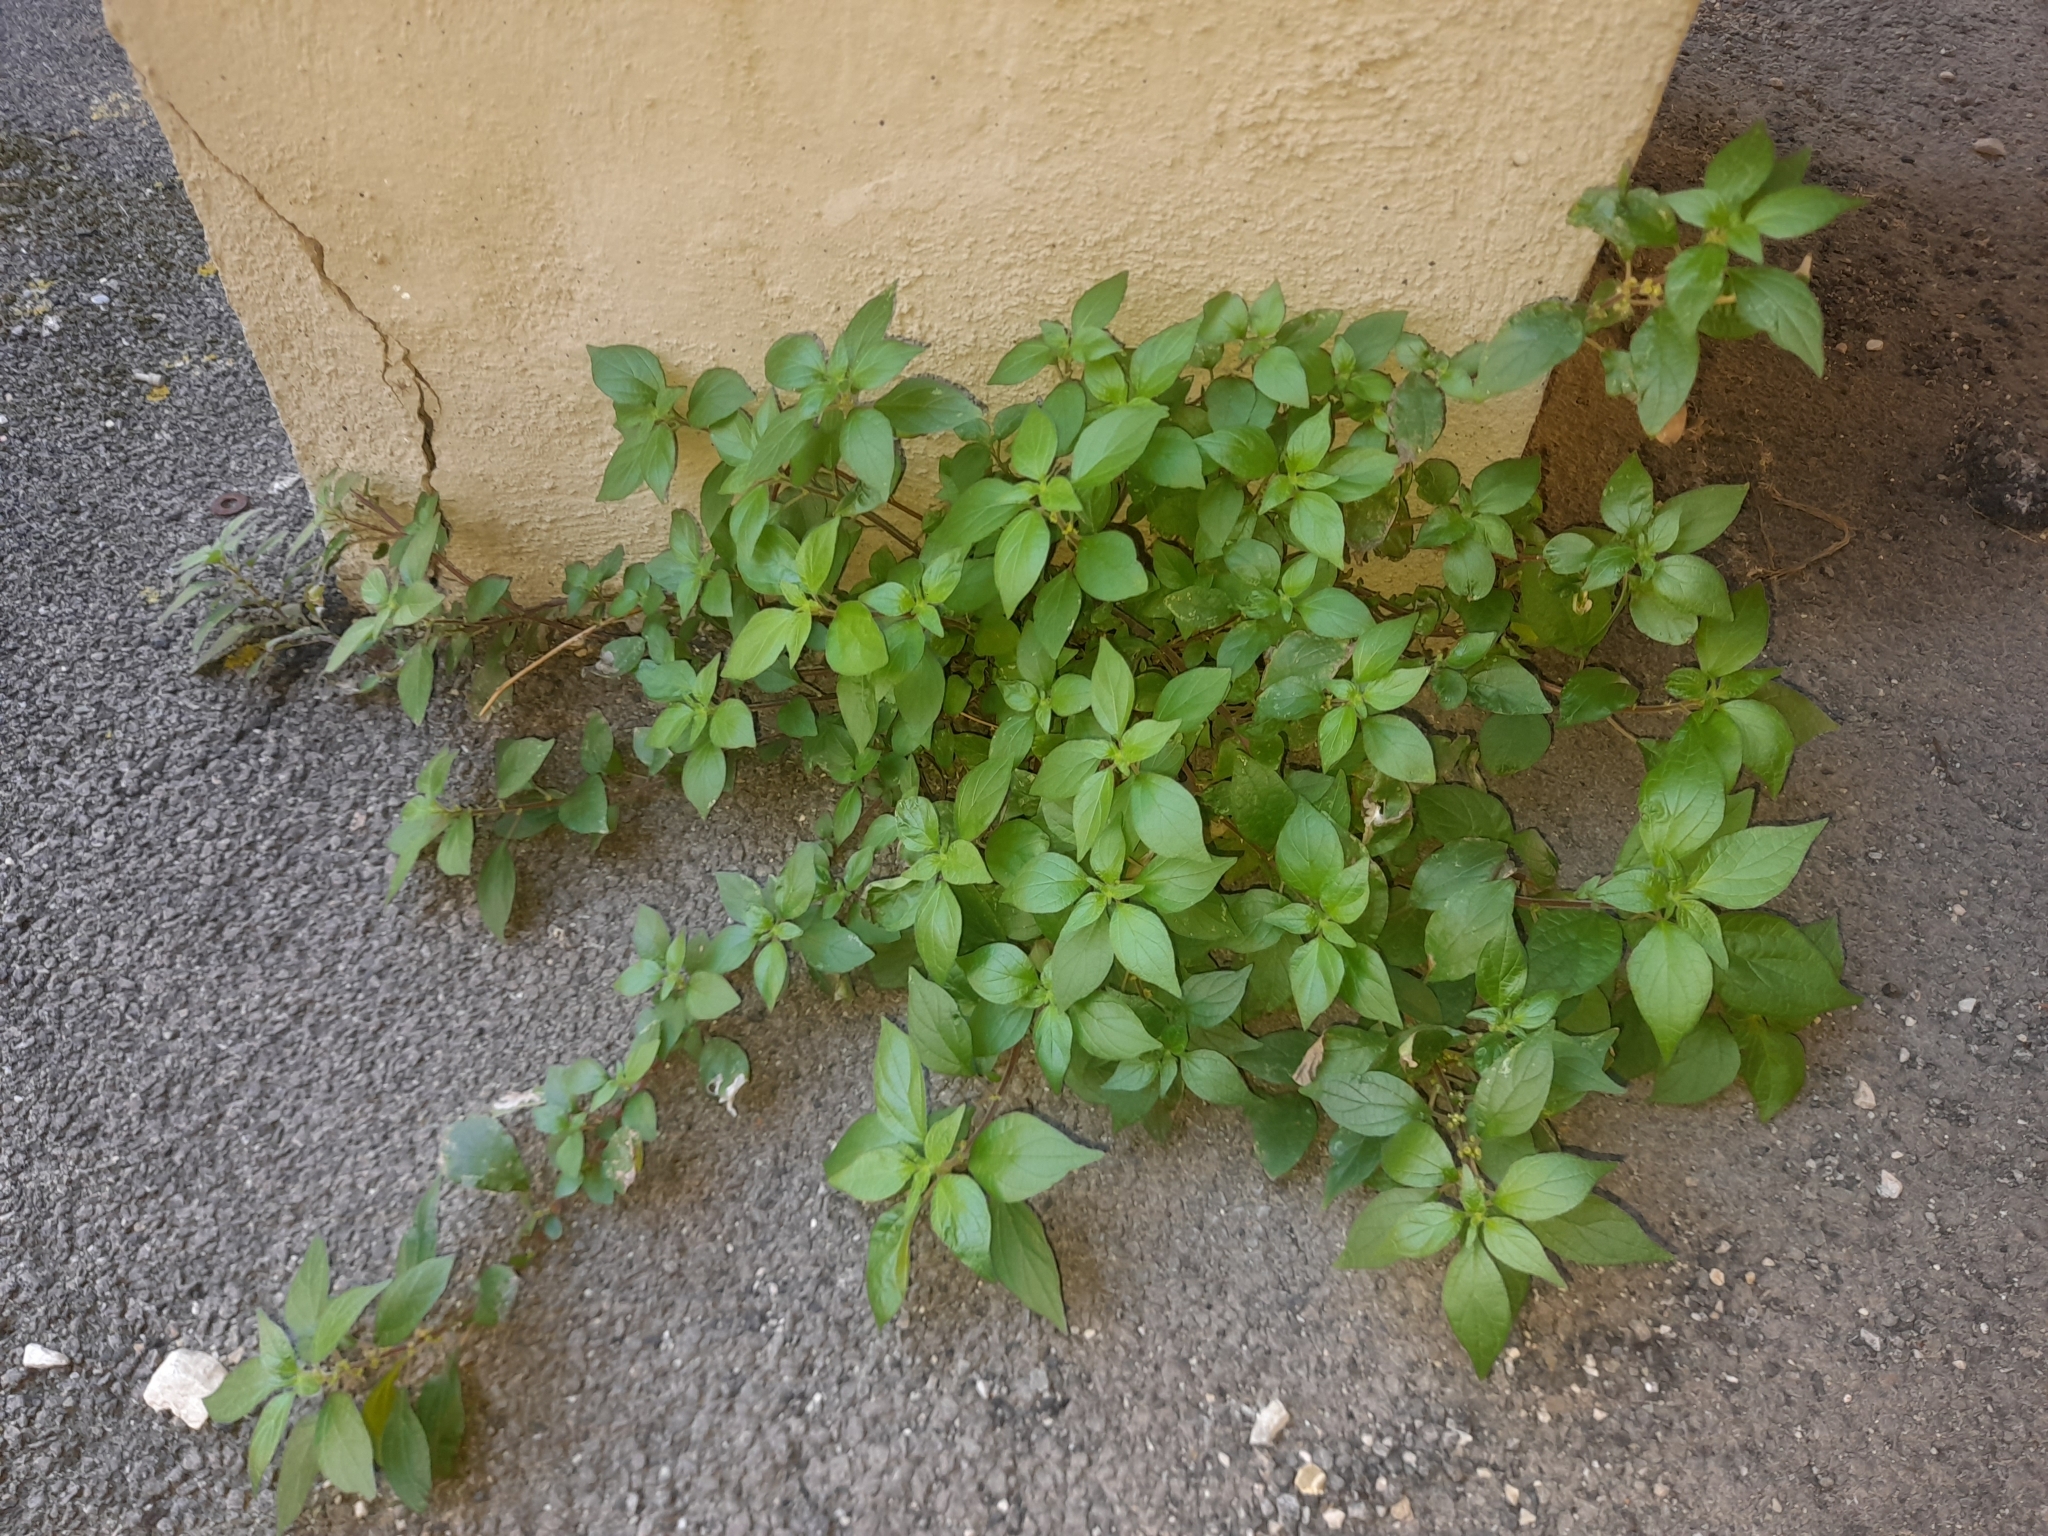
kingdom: Plantae
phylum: Tracheophyta
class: Magnoliopsida
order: Rosales
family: Urticaceae
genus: Parietaria
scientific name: Parietaria judaica
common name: Pellitory-of-the-wall
